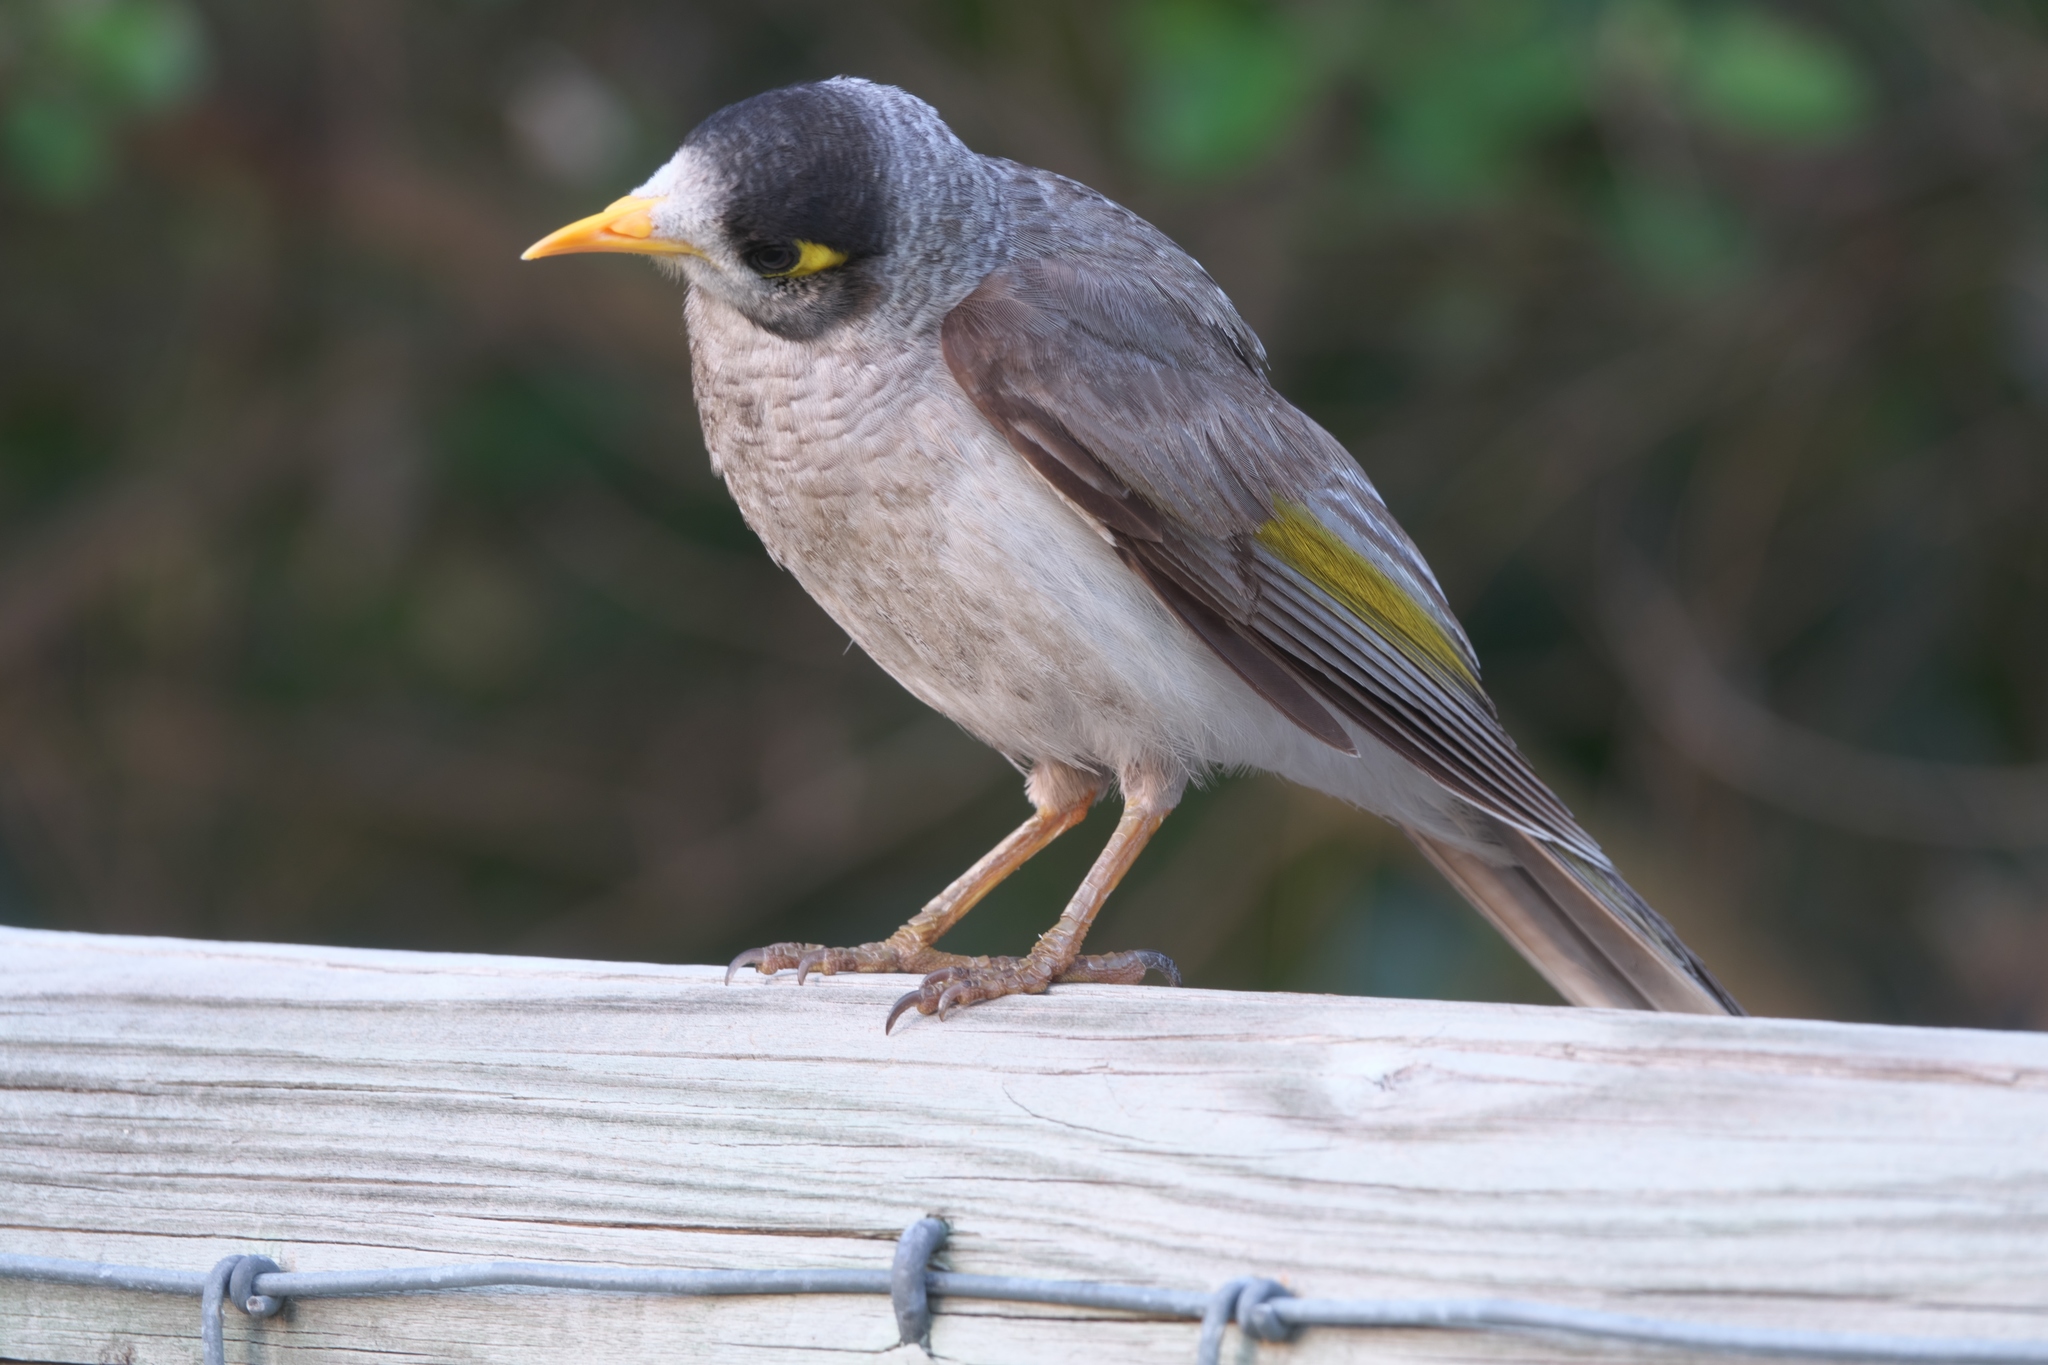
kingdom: Animalia
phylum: Chordata
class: Aves
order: Passeriformes
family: Meliphagidae
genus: Manorina
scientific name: Manorina melanocephala
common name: Noisy miner
